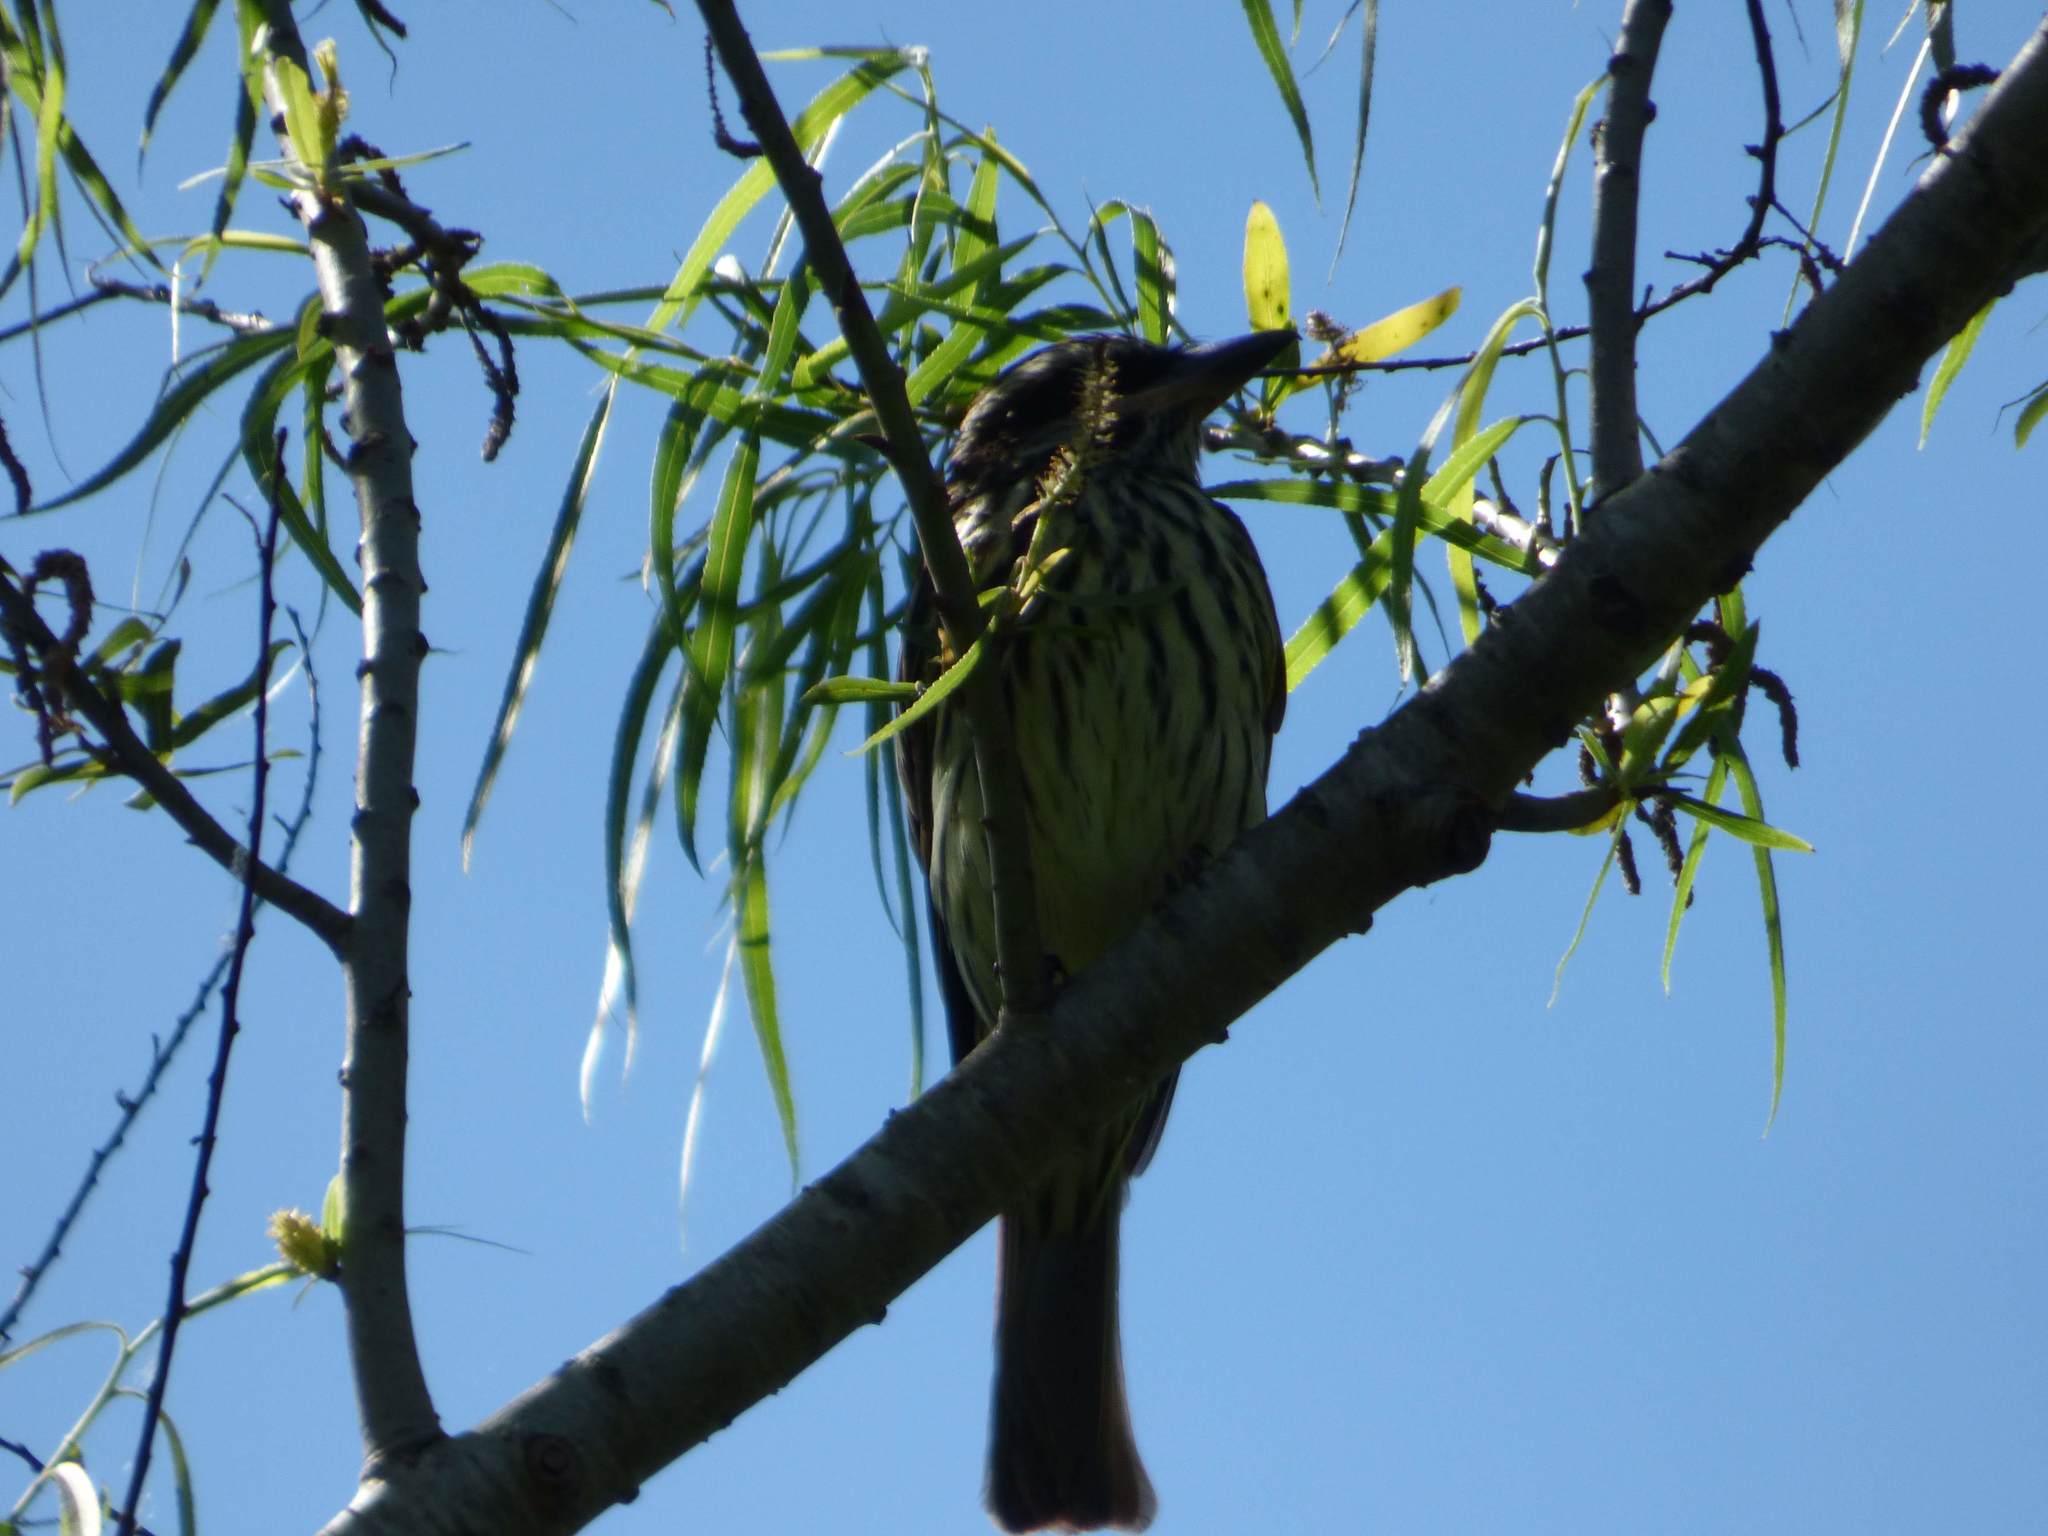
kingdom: Animalia
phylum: Chordata
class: Aves
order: Passeriformes
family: Tyrannidae
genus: Myiodynastes
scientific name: Myiodynastes maculatus
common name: Streaked flycatcher
